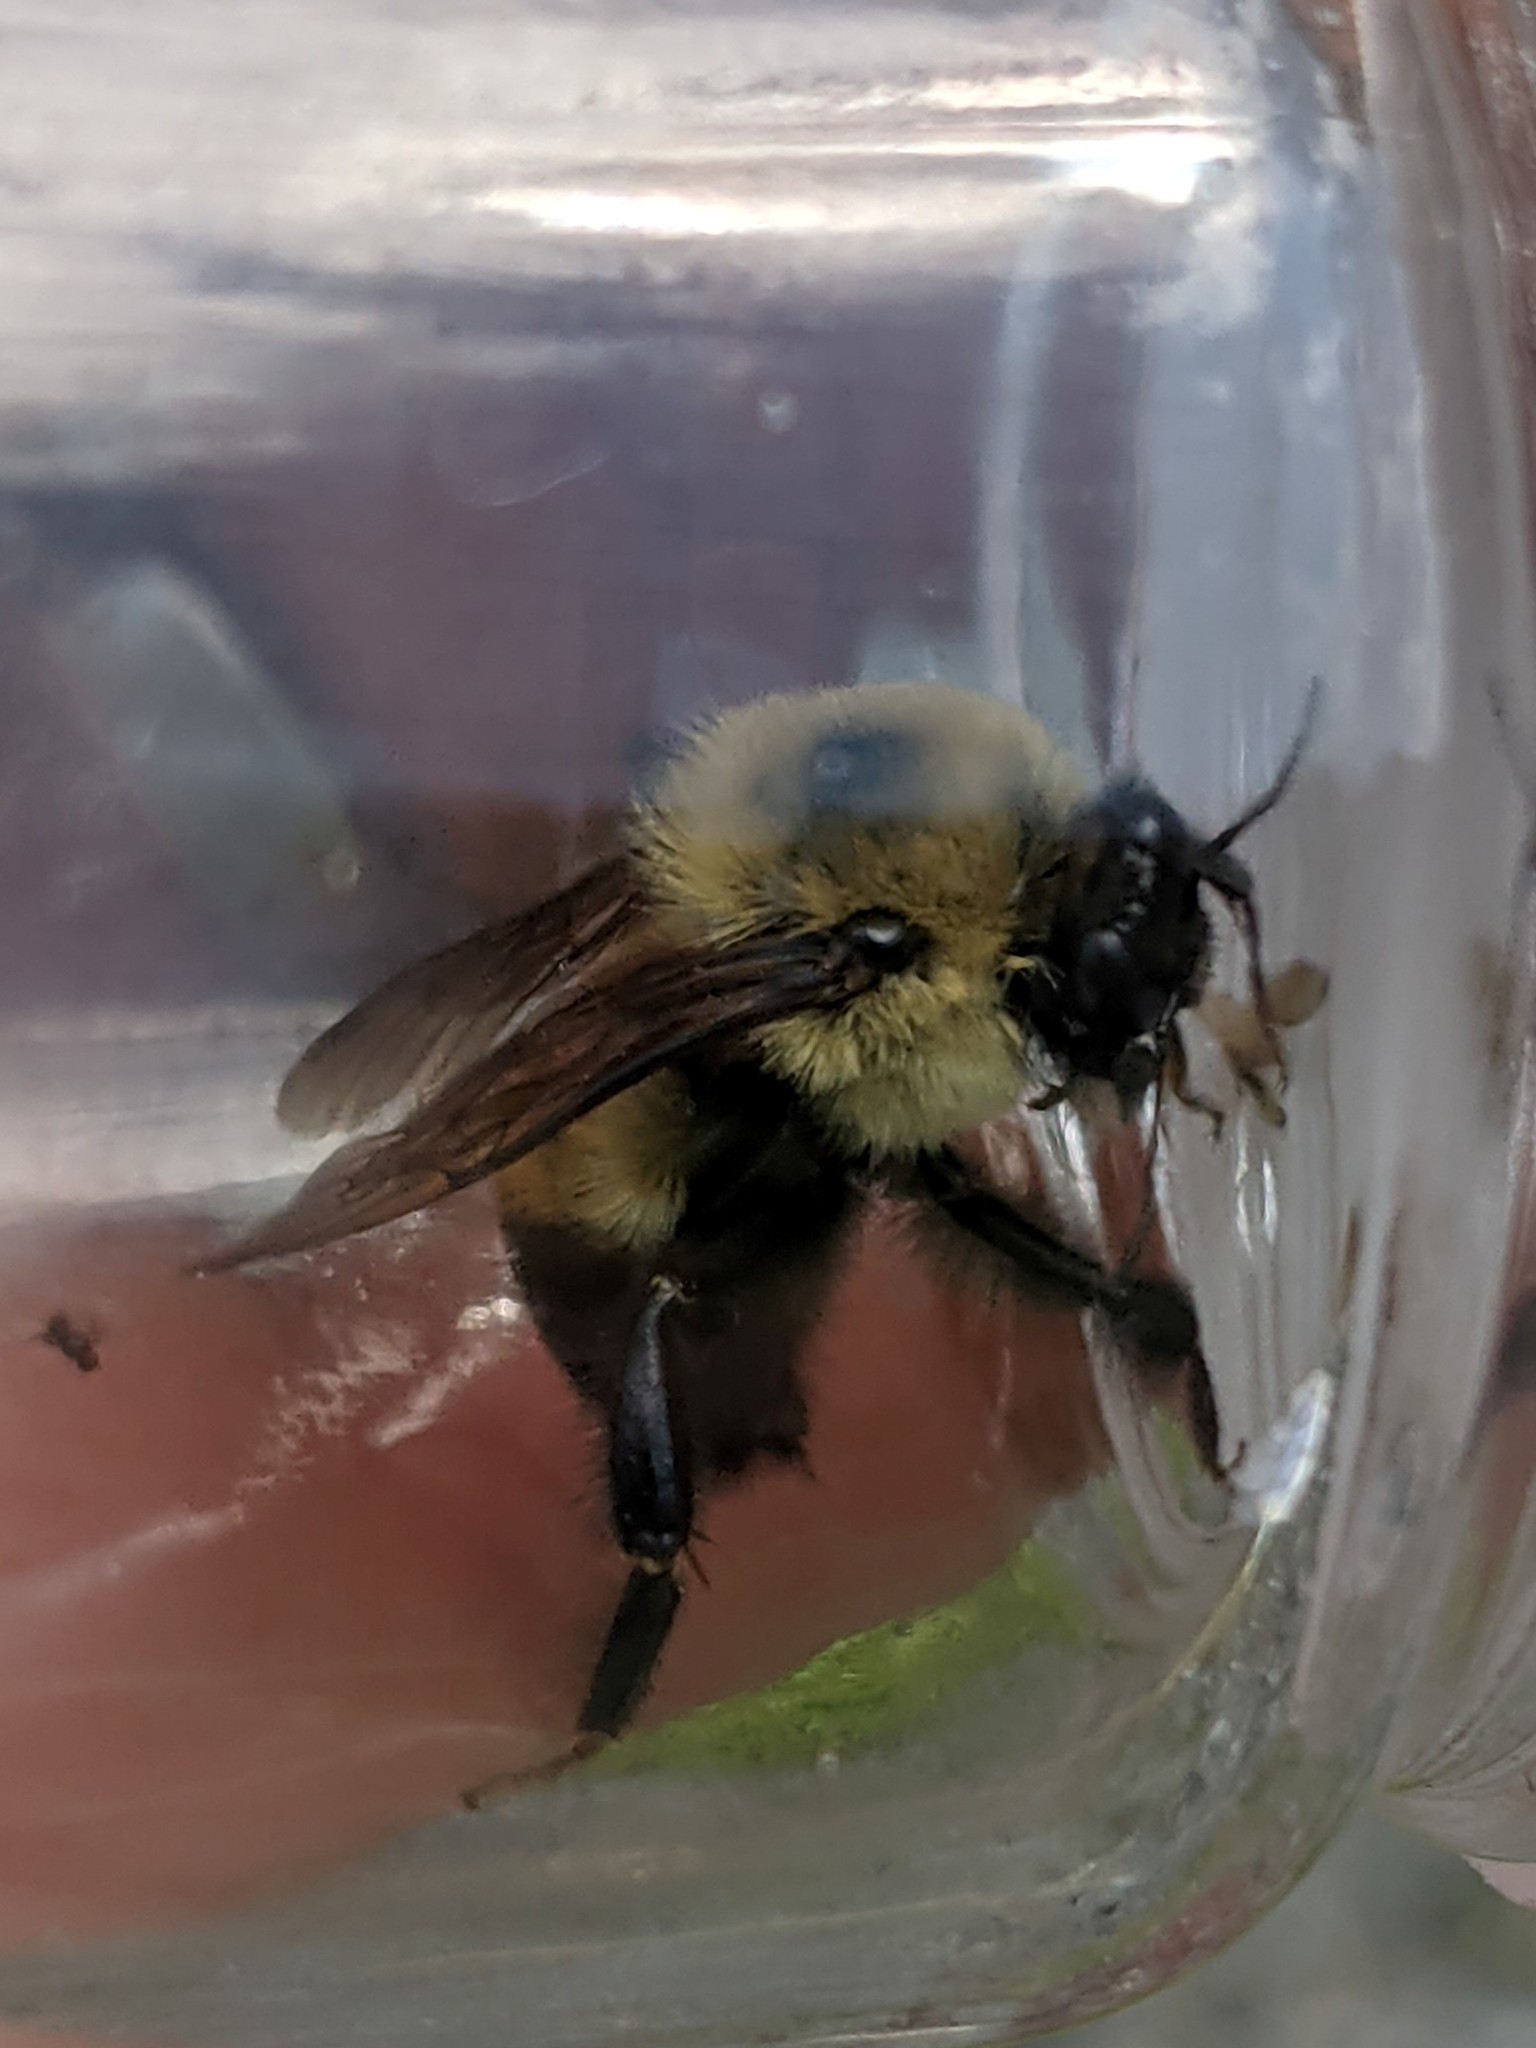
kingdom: Animalia
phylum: Arthropoda
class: Insecta
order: Hymenoptera
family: Apidae
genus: Bombus
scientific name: Bombus griseocollis
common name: Brown-belted bumble bee
